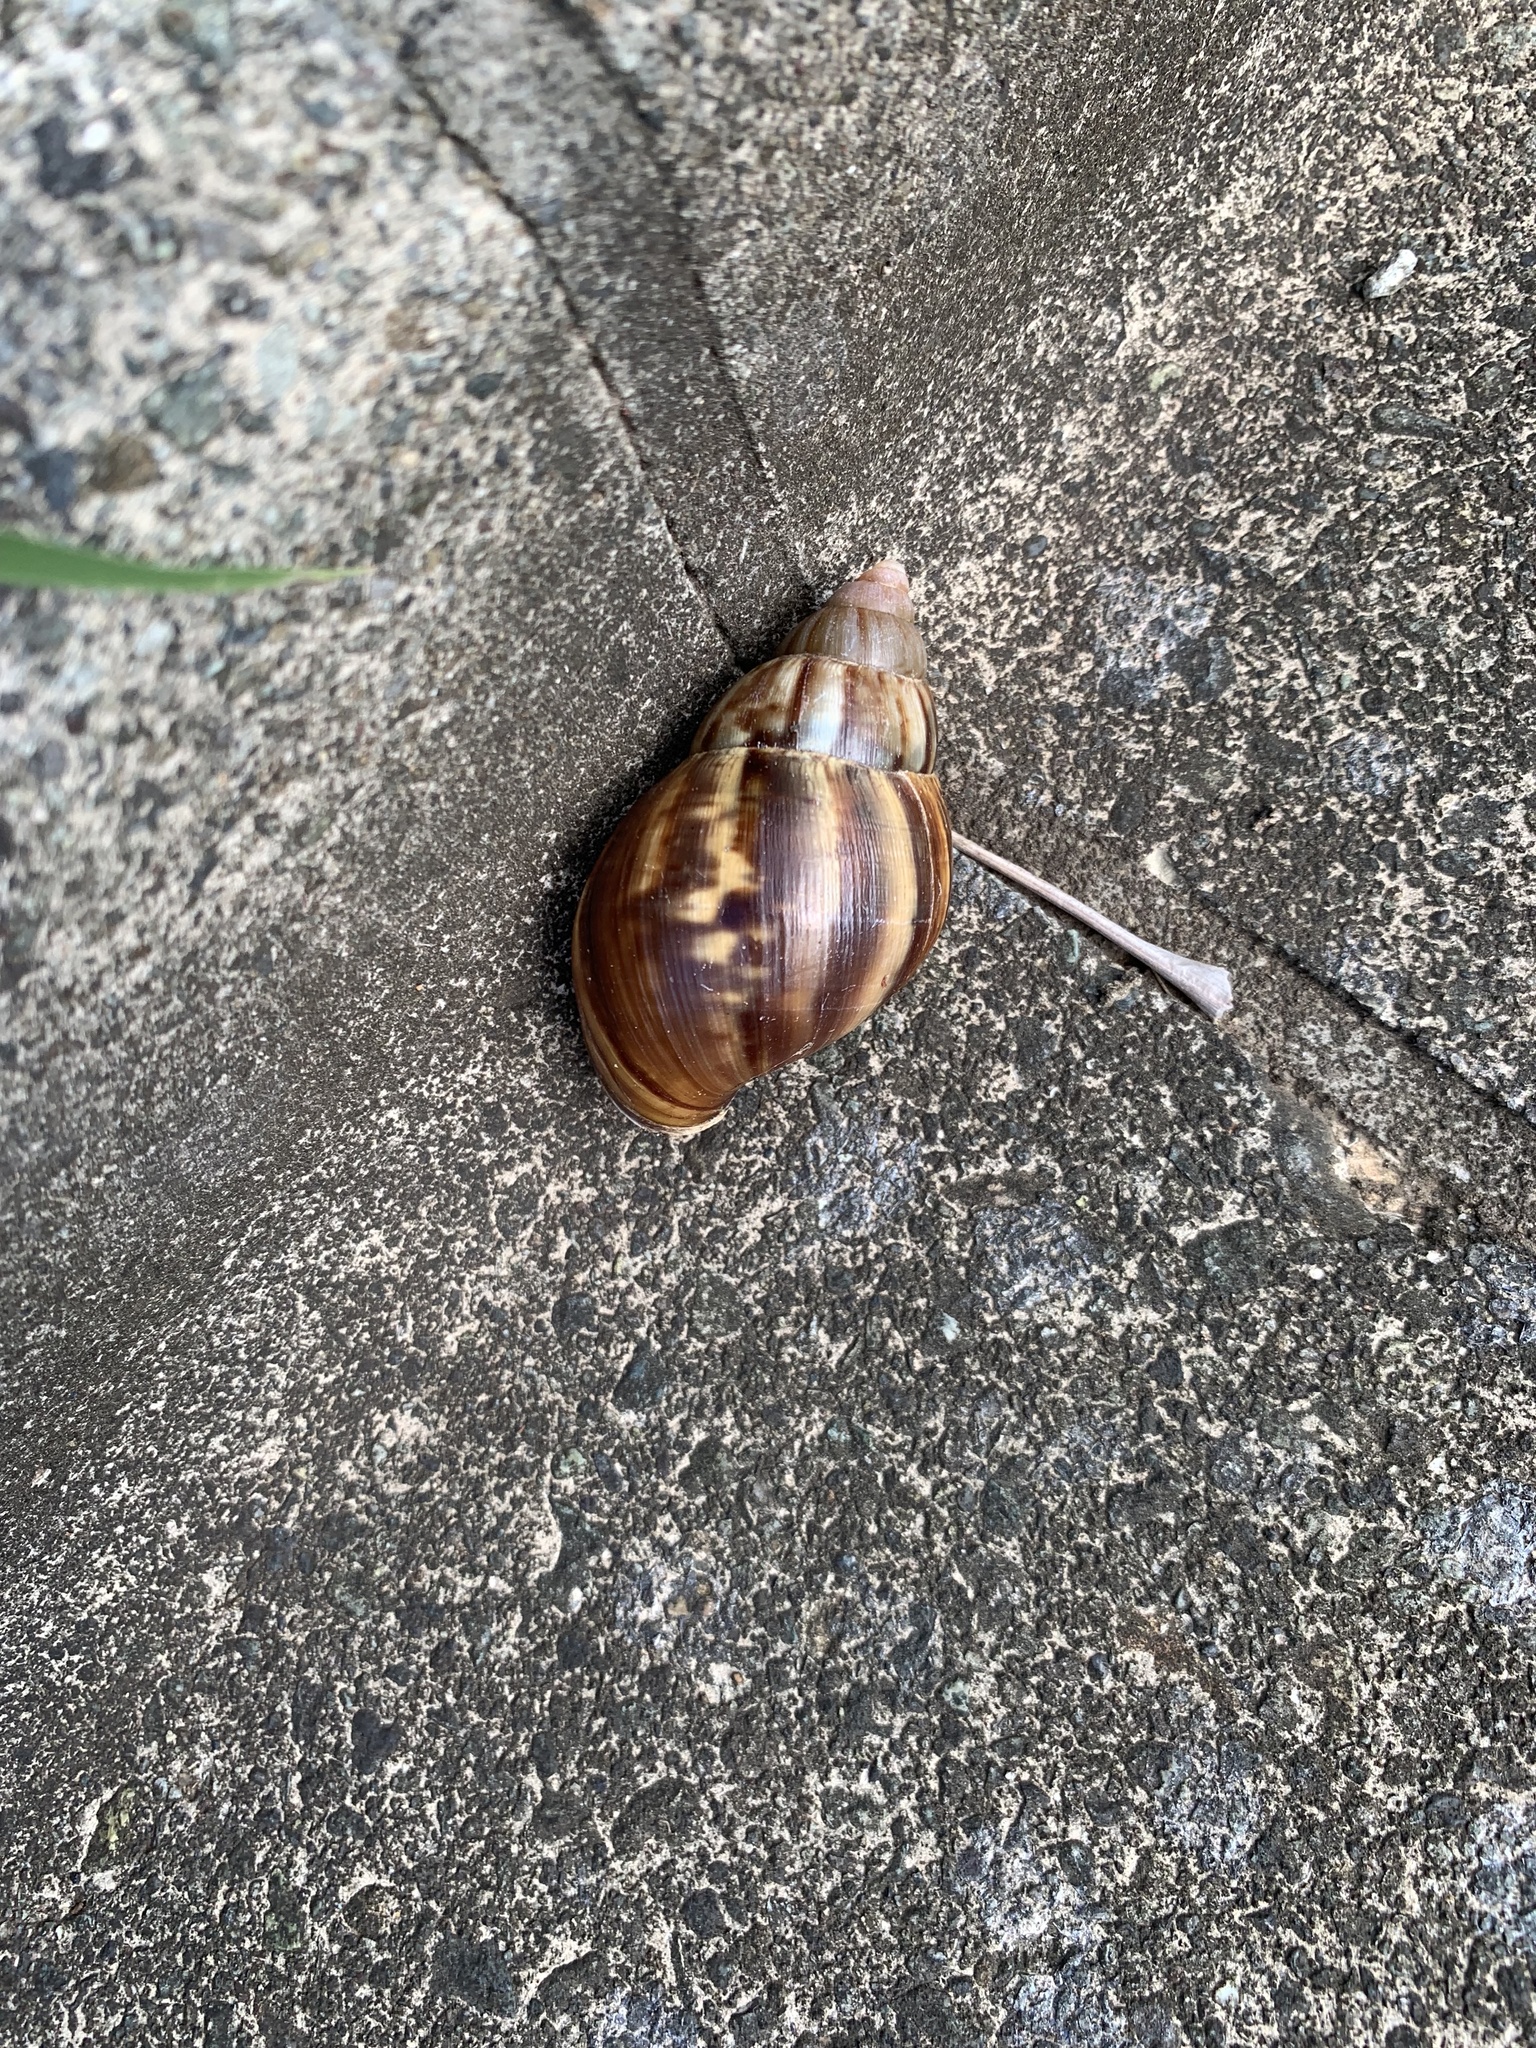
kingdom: Animalia
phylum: Mollusca
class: Gastropoda
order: Stylommatophora
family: Achatinidae
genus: Lissachatina
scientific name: Lissachatina fulica
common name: Giant african snail
